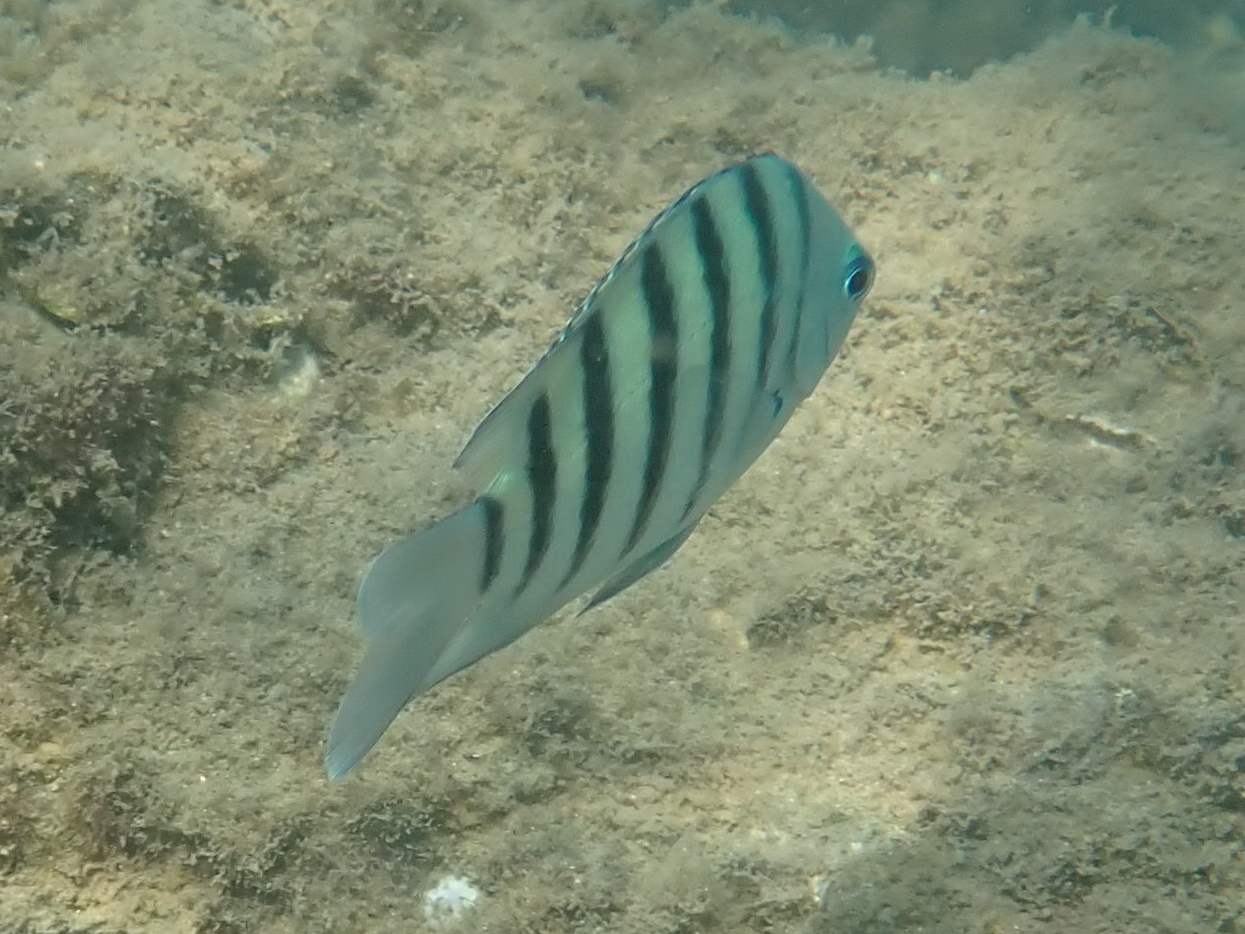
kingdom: Animalia
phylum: Chordata
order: Perciformes
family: Pomacentridae
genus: Abudefduf
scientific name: Abudefduf bengalensis
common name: Bengal sergeant
